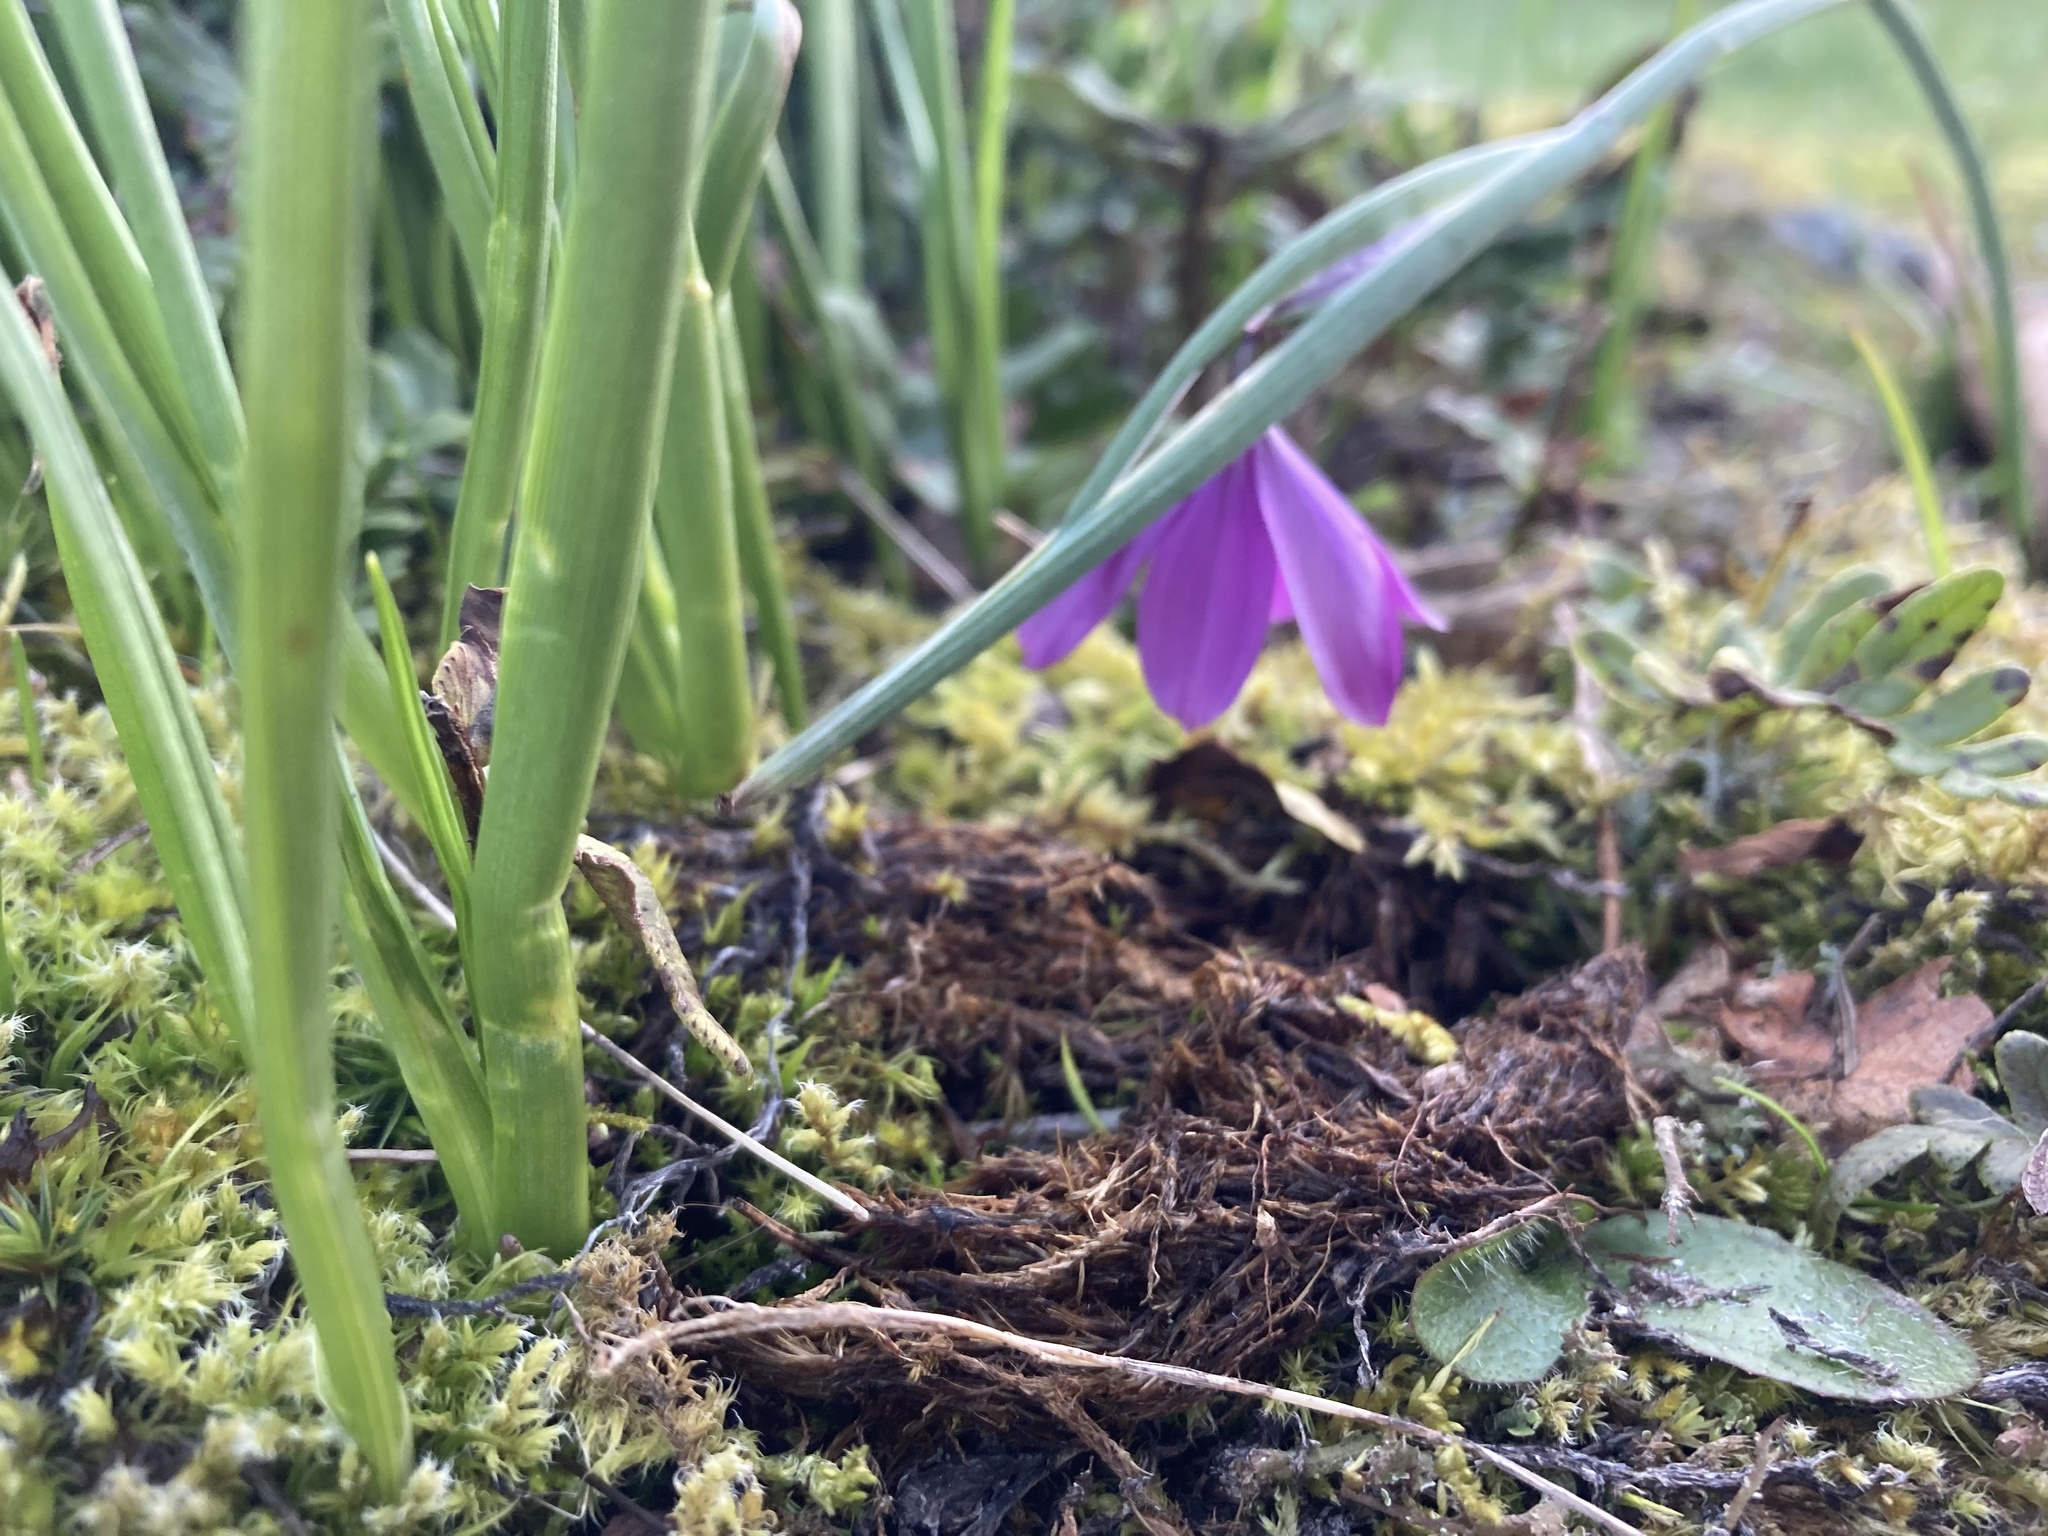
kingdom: Plantae
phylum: Tracheophyta
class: Liliopsida
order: Asparagales
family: Iridaceae
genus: Olsynium
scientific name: Olsynium douglasii
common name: Douglas' grasswidow
